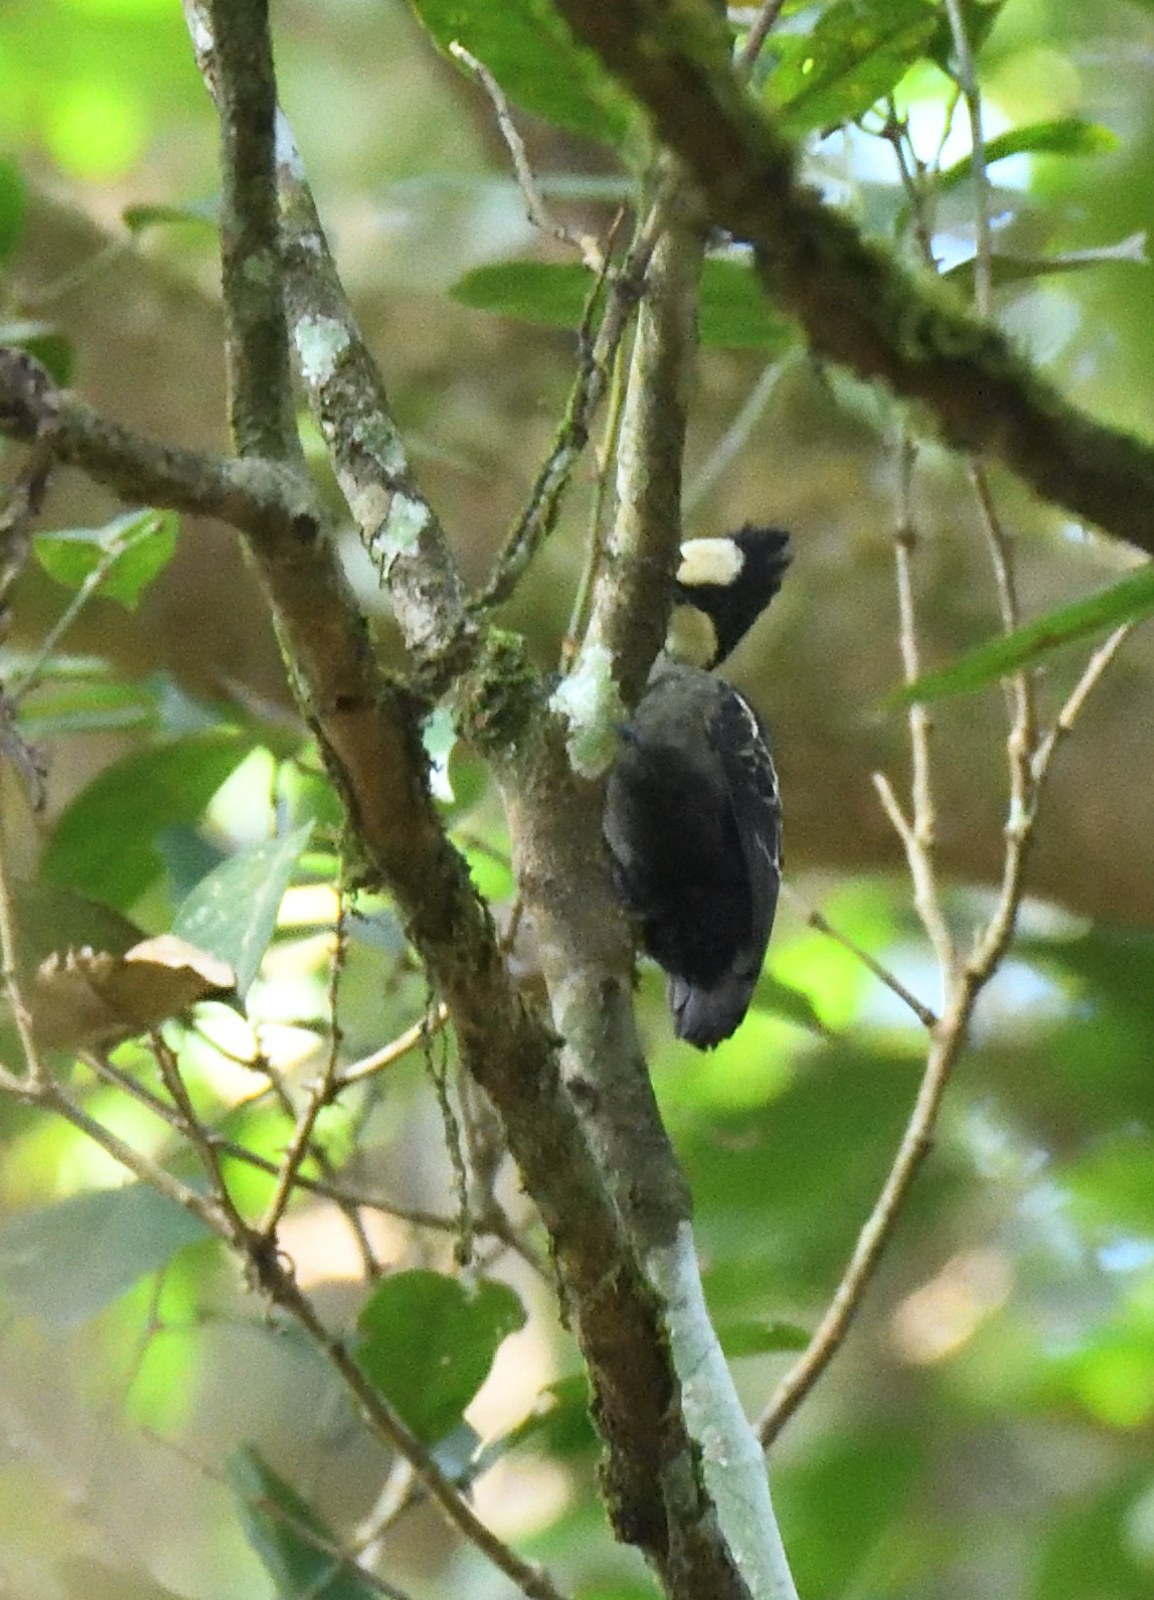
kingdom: Animalia
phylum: Chordata
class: Aves
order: Piciformes
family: Picidae
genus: Hemicircus
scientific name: Hemicircus canente
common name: Heart-spotted woodpecker
